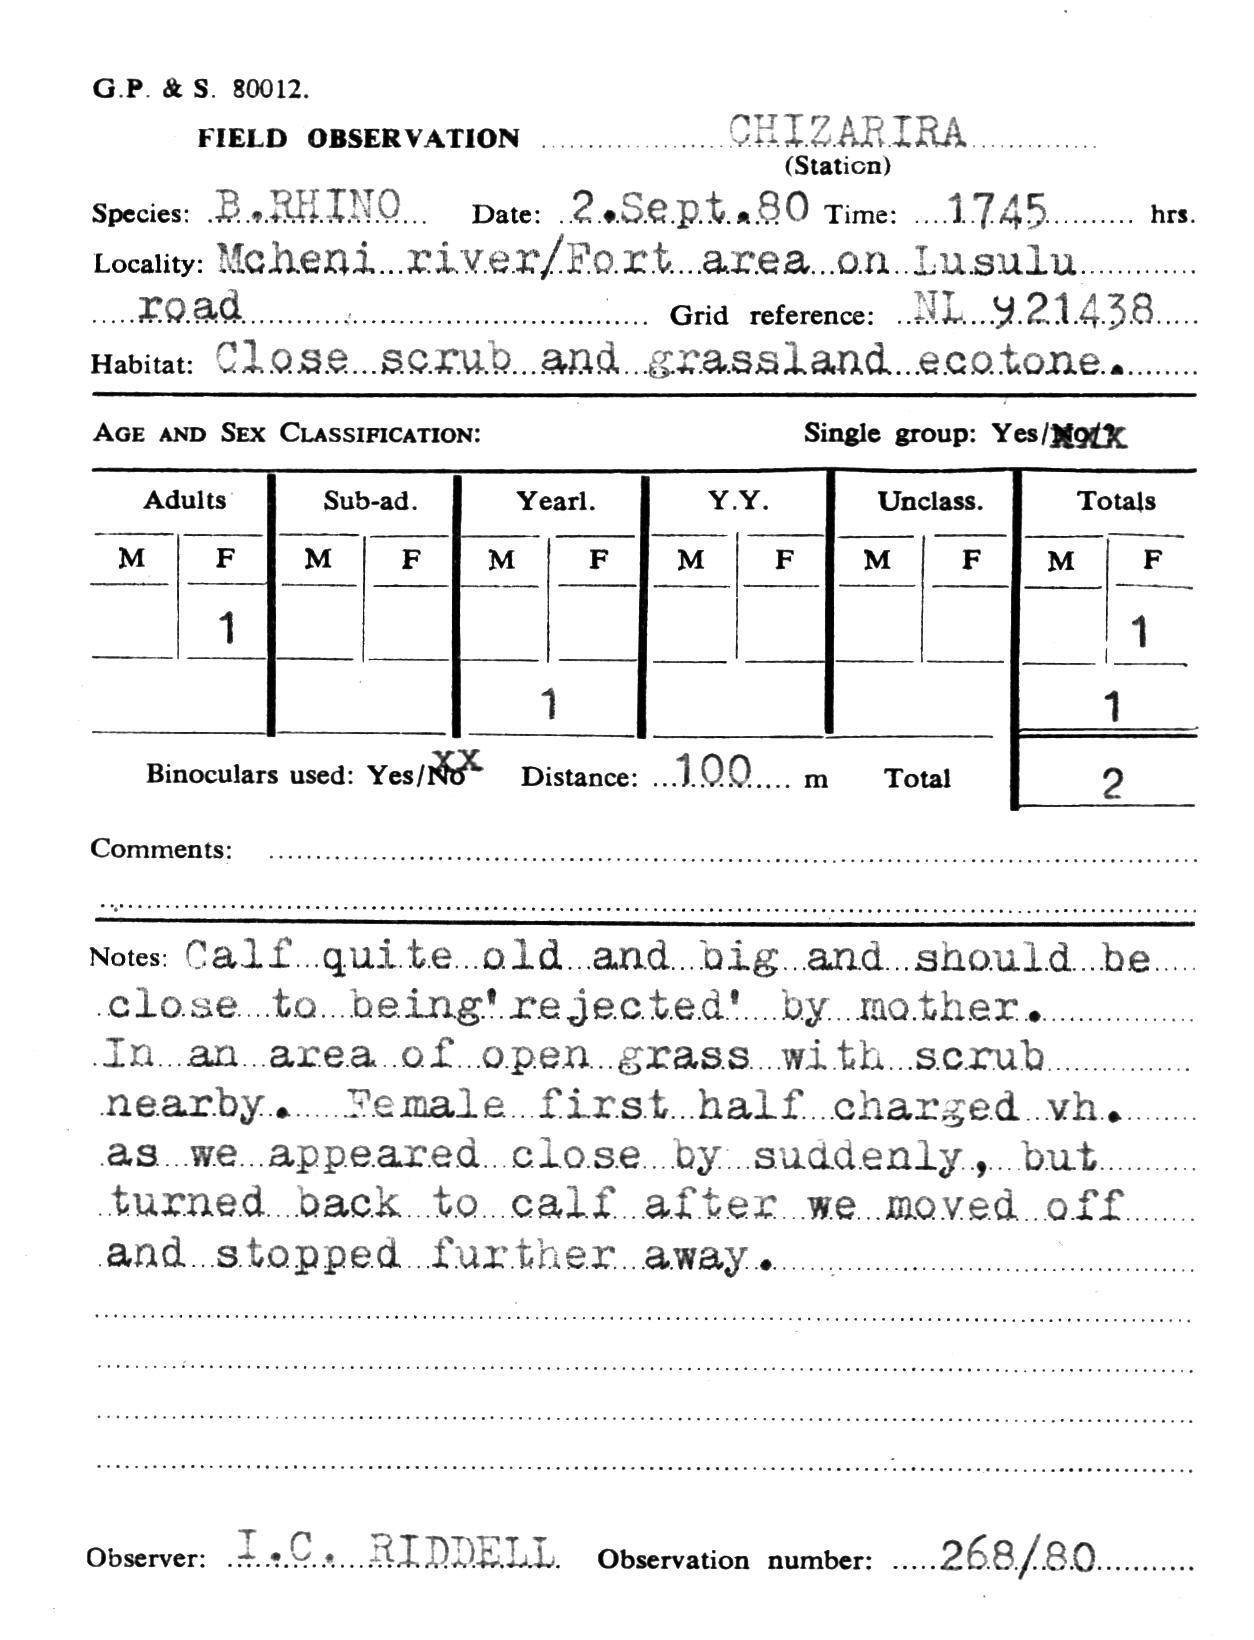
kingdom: Animalia
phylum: Chordata
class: Mammalia
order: Perissodactyla
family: Rhinocerotidae
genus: Diceros
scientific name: Diceros bicornis
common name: Black rhinoceros
